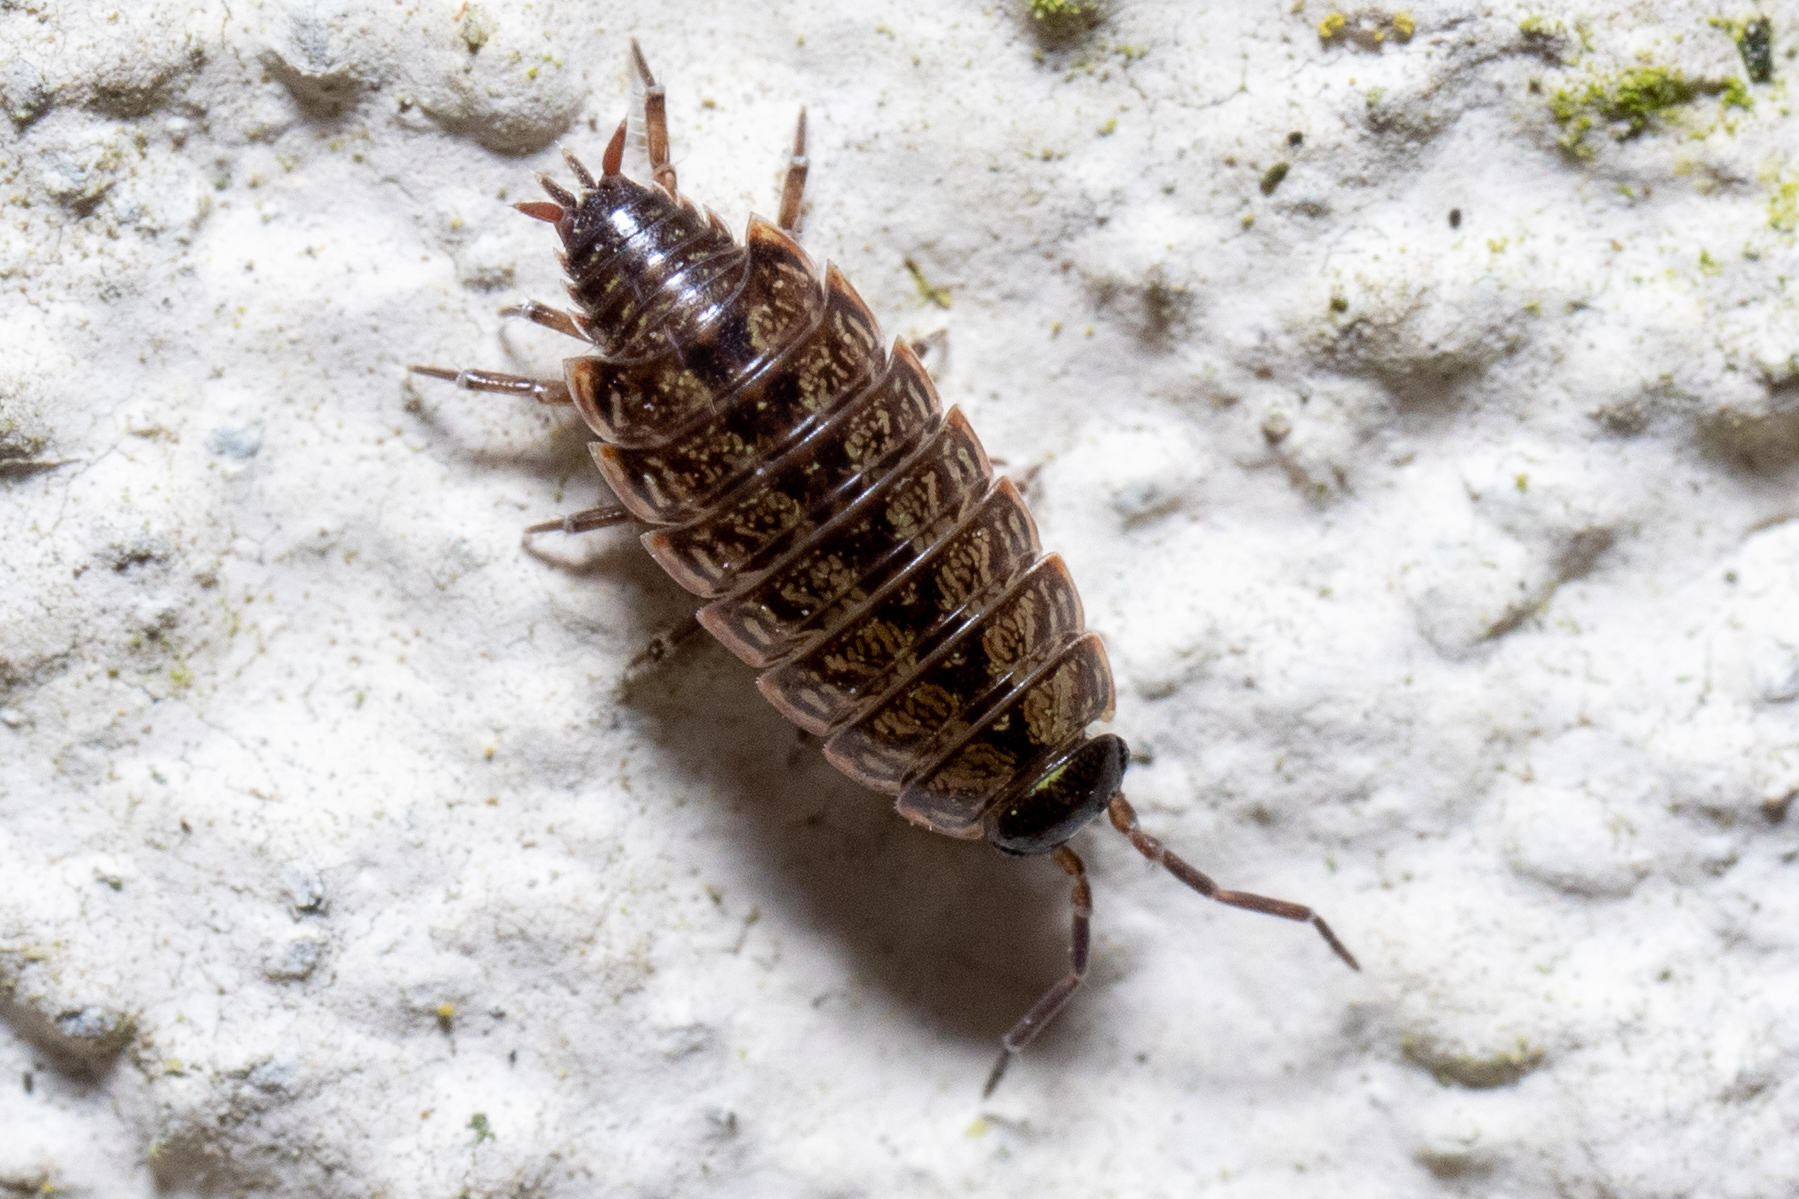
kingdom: Animalia
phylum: Arthropoda
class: Malacostraca
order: Isopoda
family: Philosciidae
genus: Philoscia
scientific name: Philoscia muscorum
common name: Common striped woodlouse
